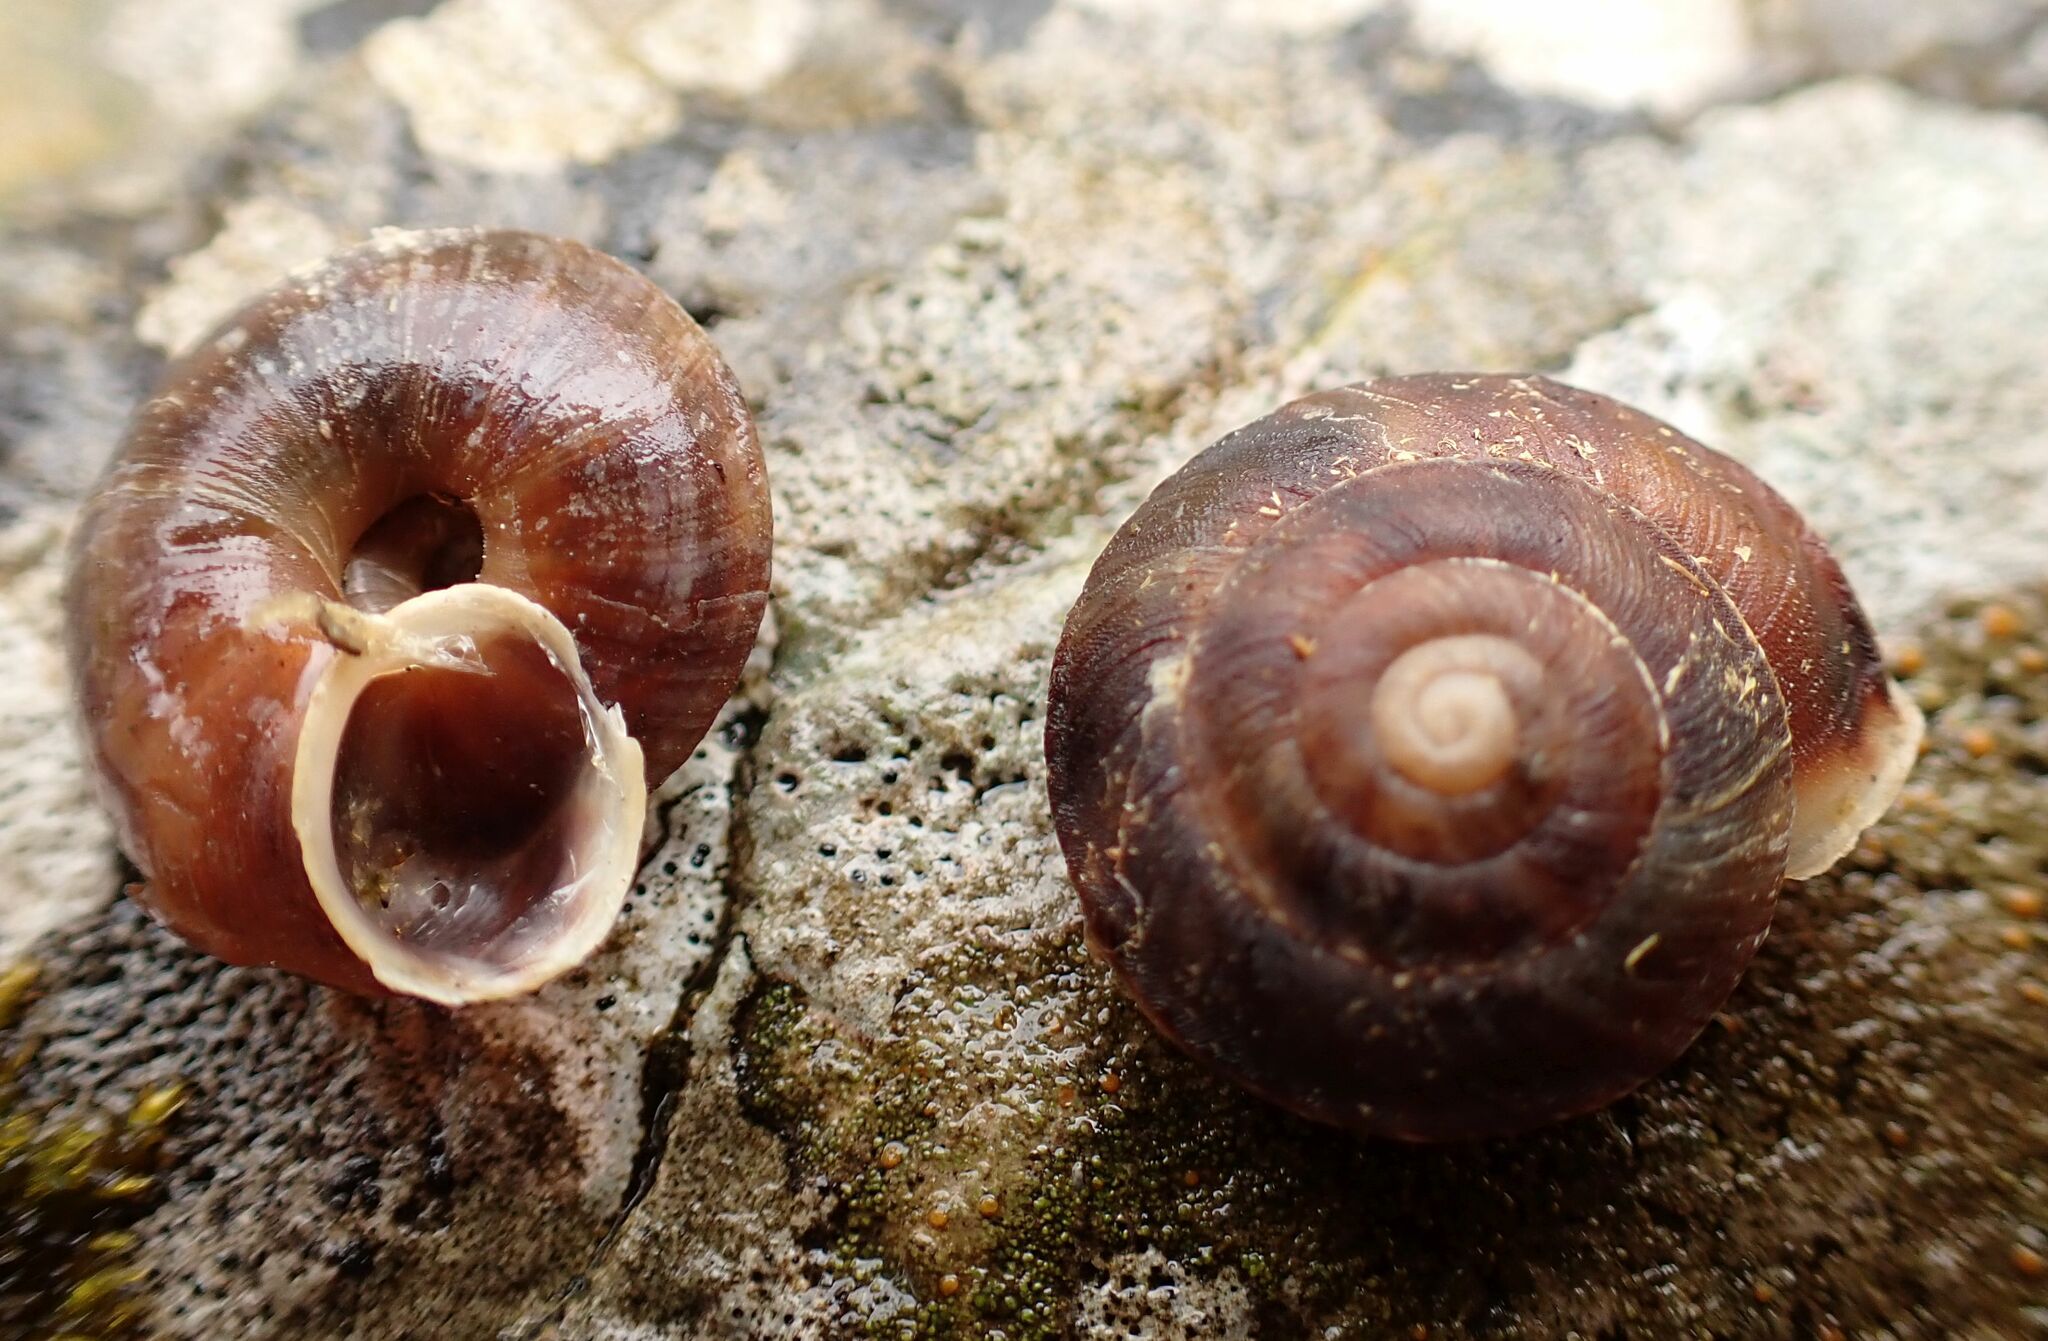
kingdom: Animalia
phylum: Mollusca
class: Gastropoda
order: Stylommatophora
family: Helicidae
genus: Helicigona
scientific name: Helicigona lapicida
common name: Lapidary snail
